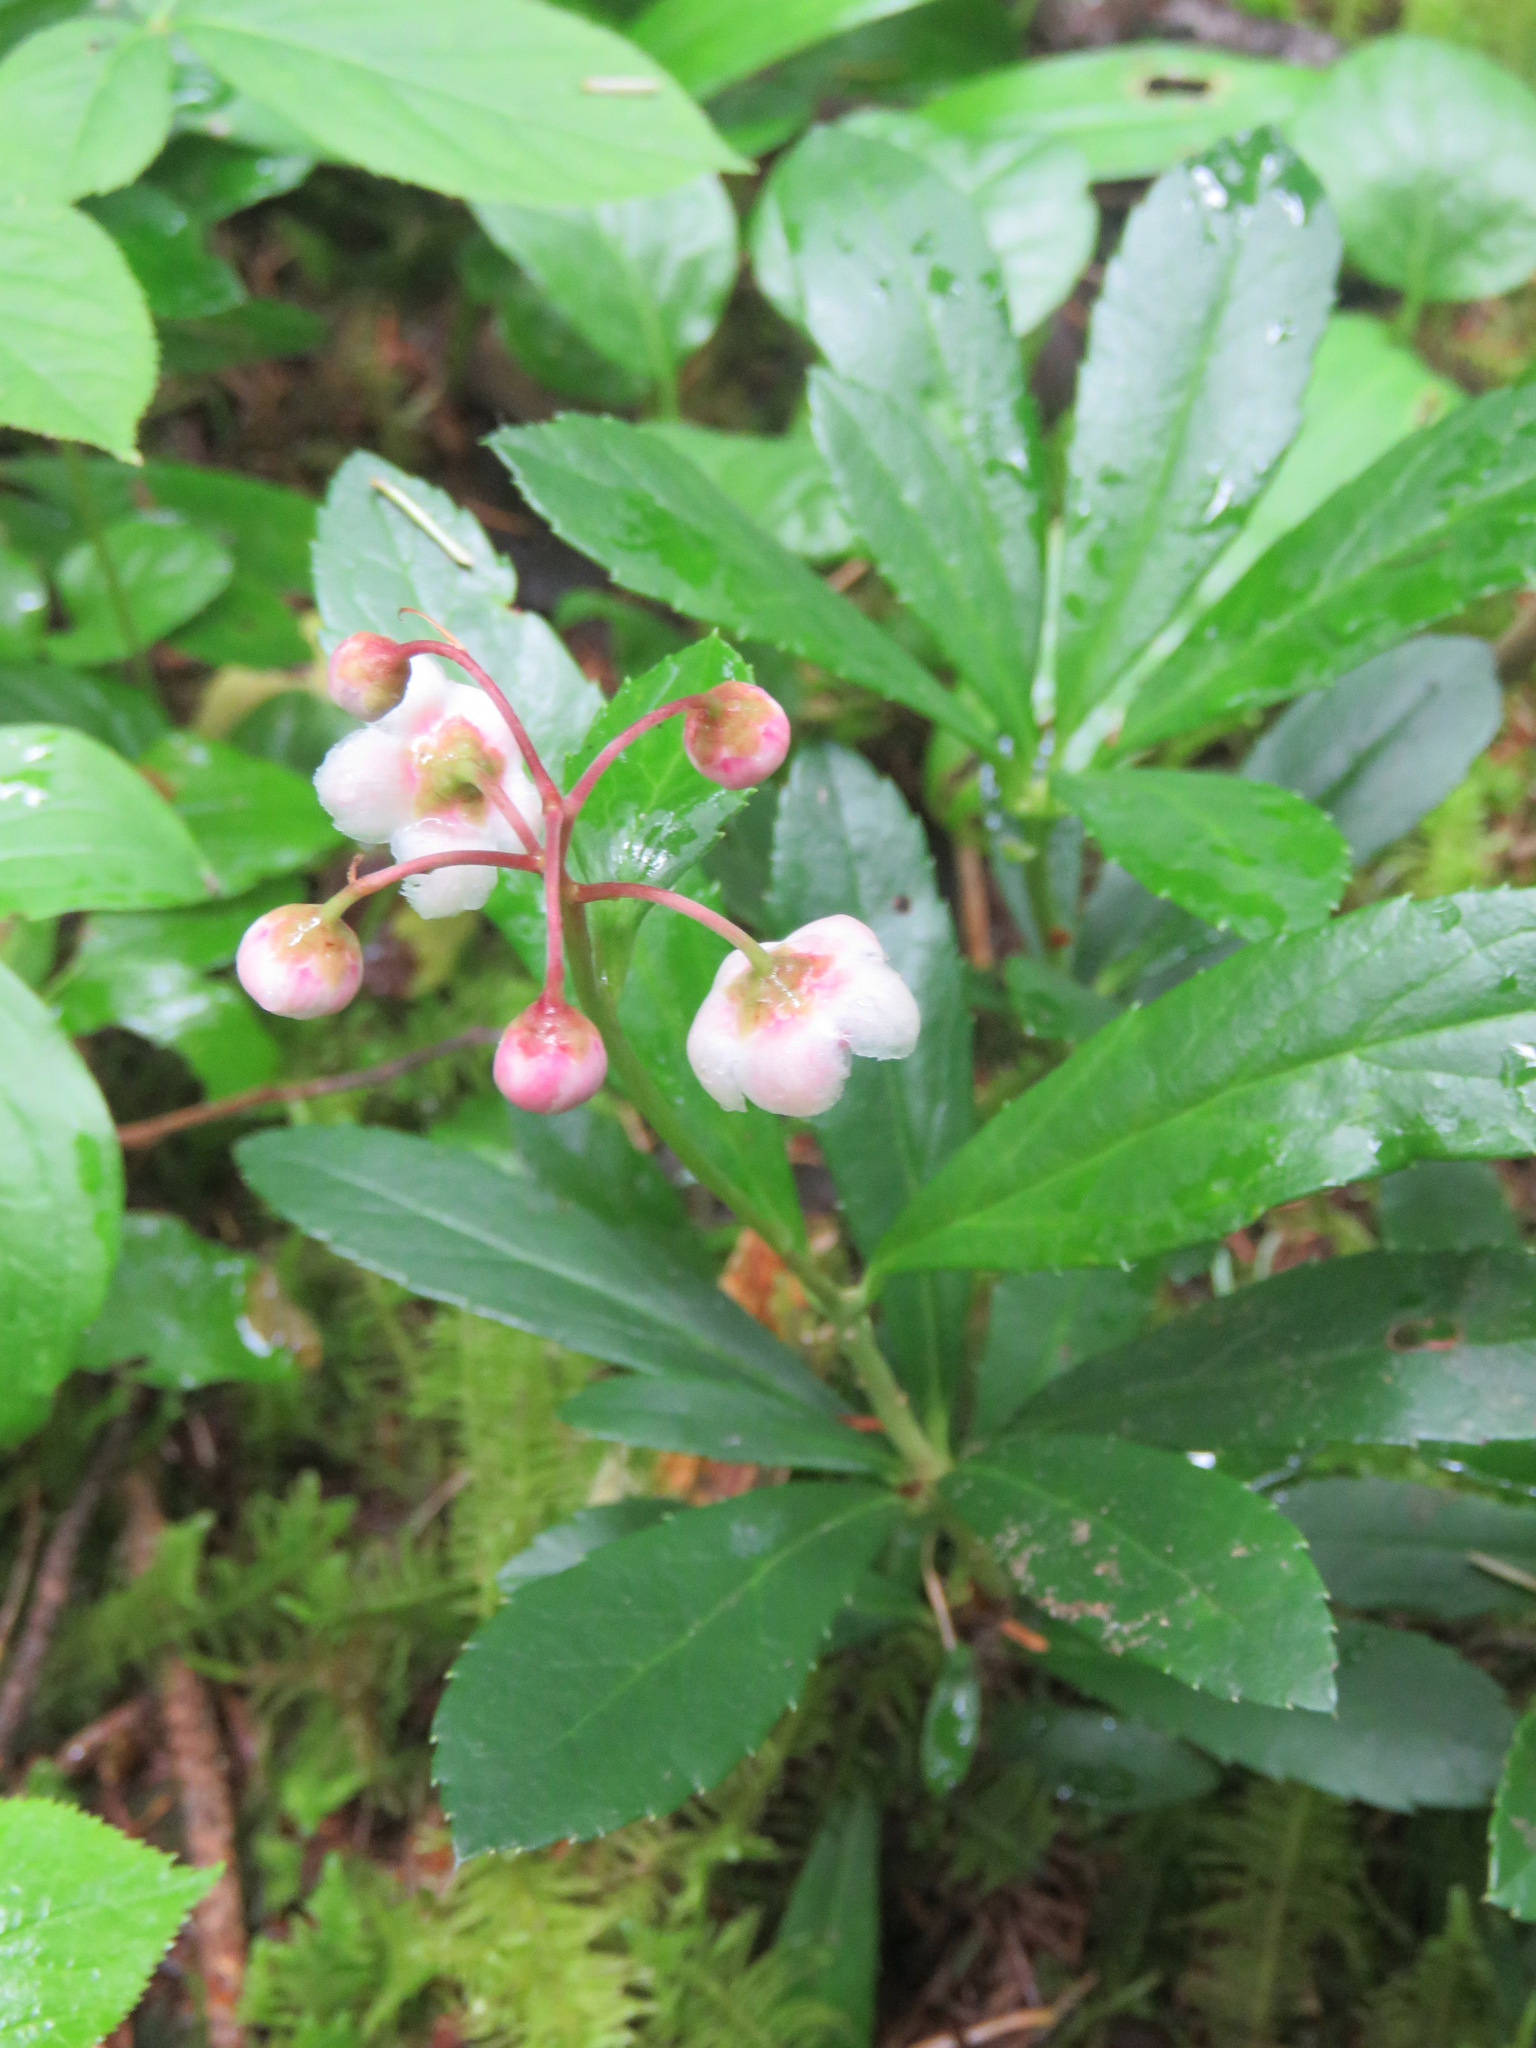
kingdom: Plantae
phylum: Tracheophyta
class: Magnoliopsida
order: Ericales
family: Ericaceae
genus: Chimaphila
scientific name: Chimaphila umbellata
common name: Pipsissewa
